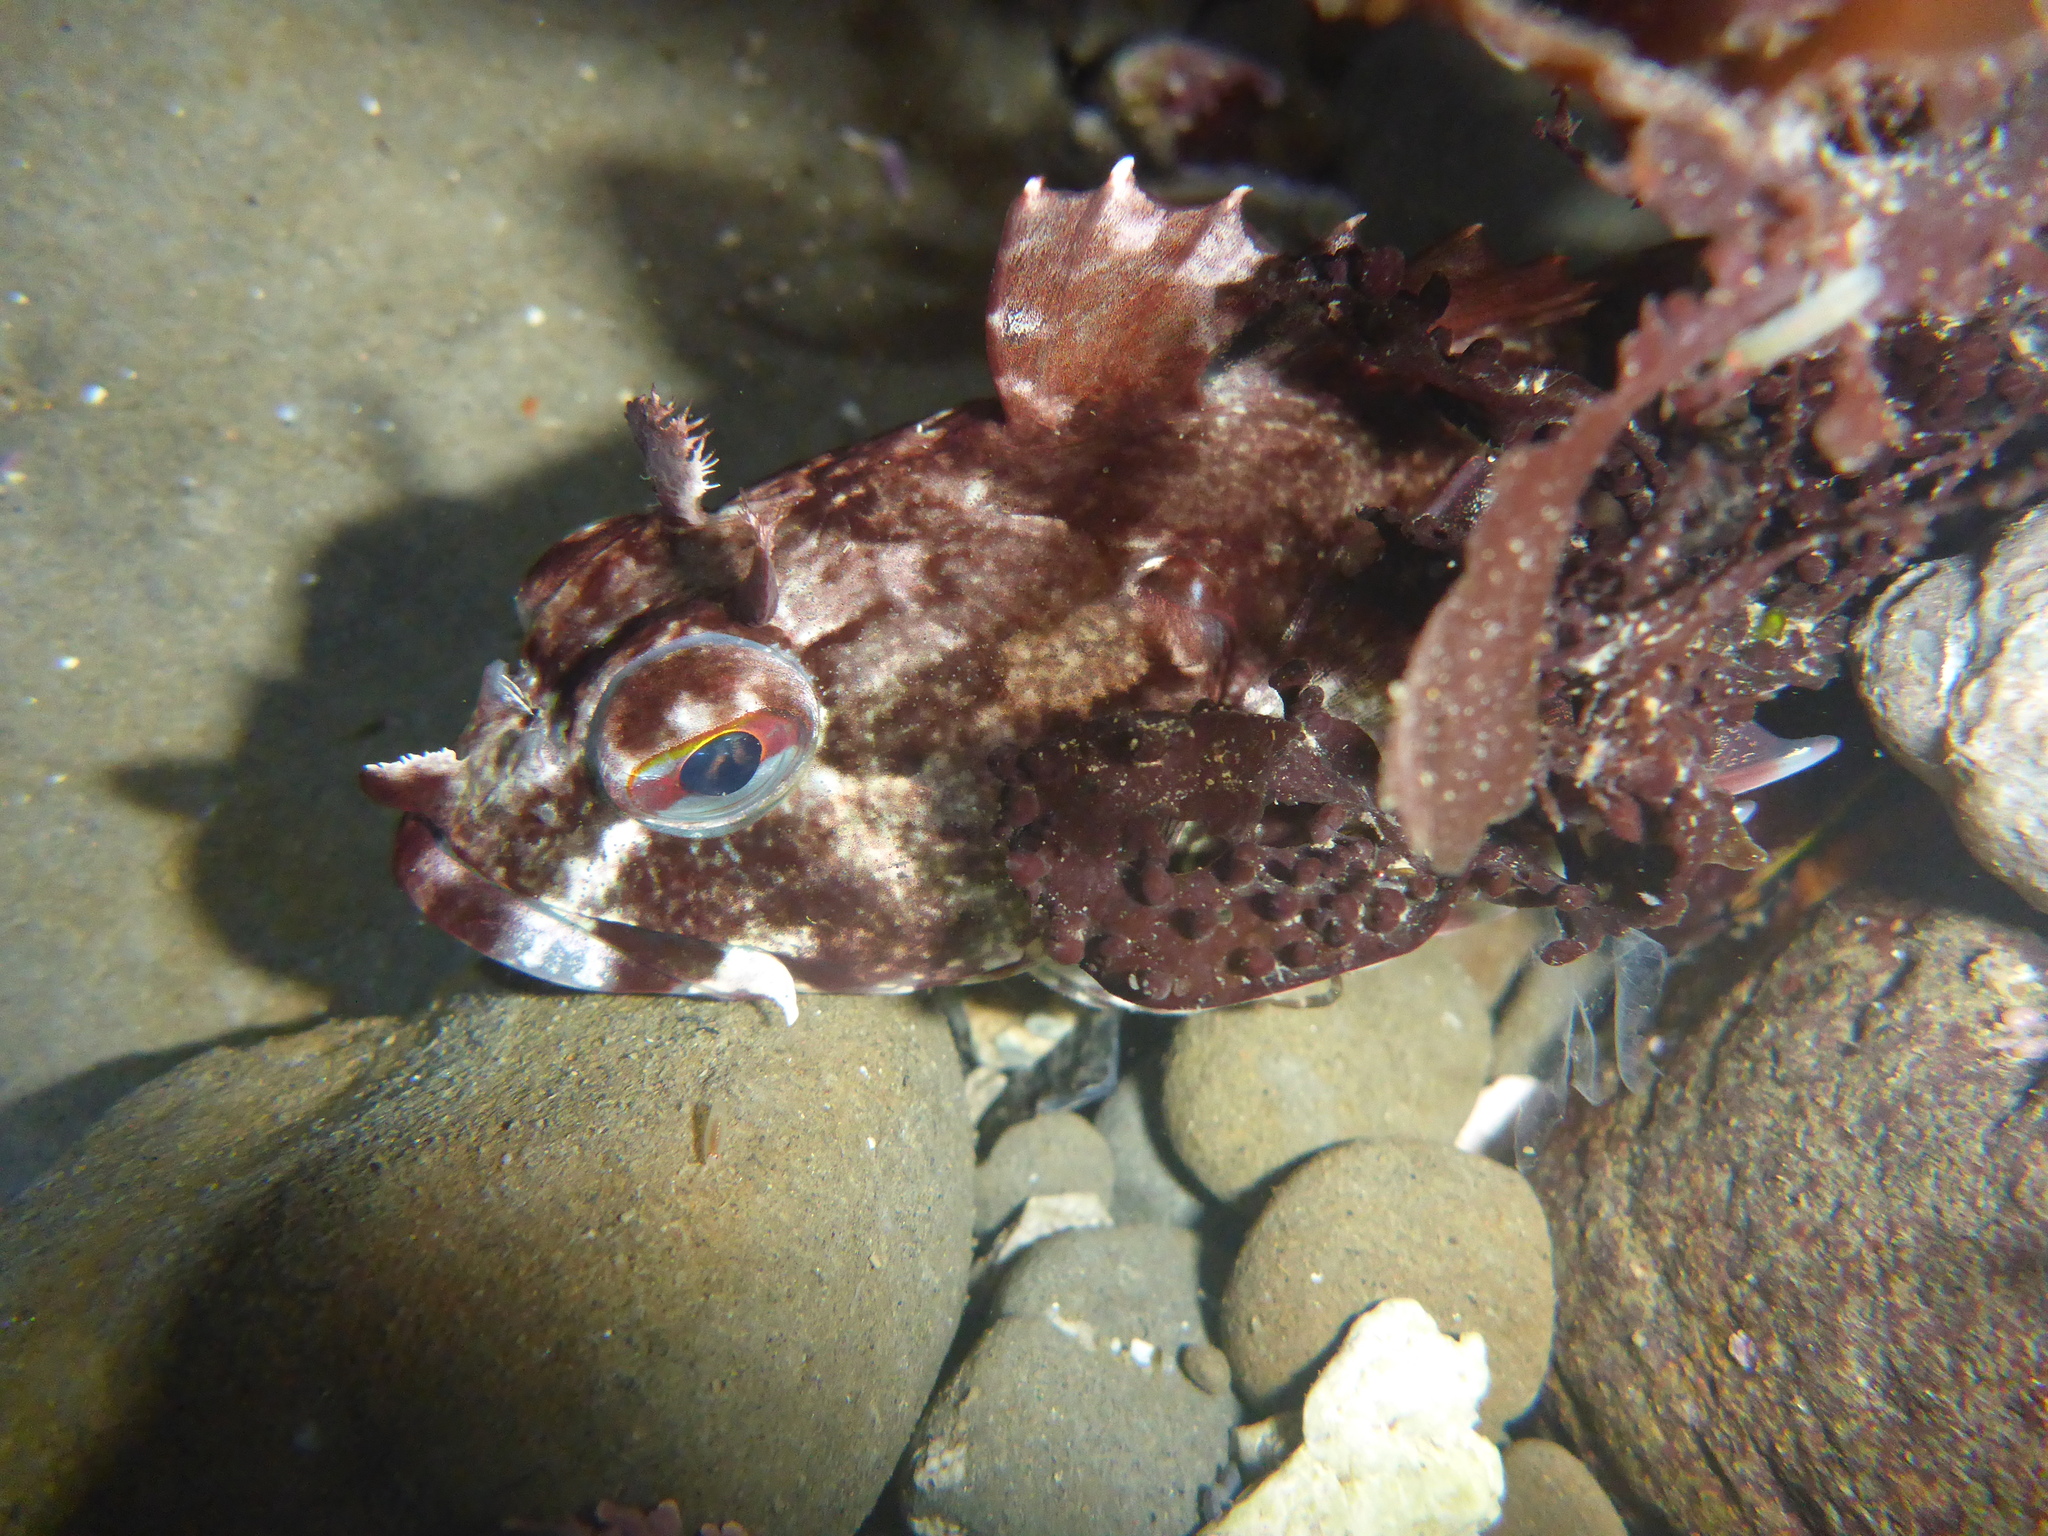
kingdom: Animalia
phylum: Chordata
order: Scorpaeniformes
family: Cottidae
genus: Scorpaenichthys
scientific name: Scorpaenichthys marmoratus
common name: Cabezon
